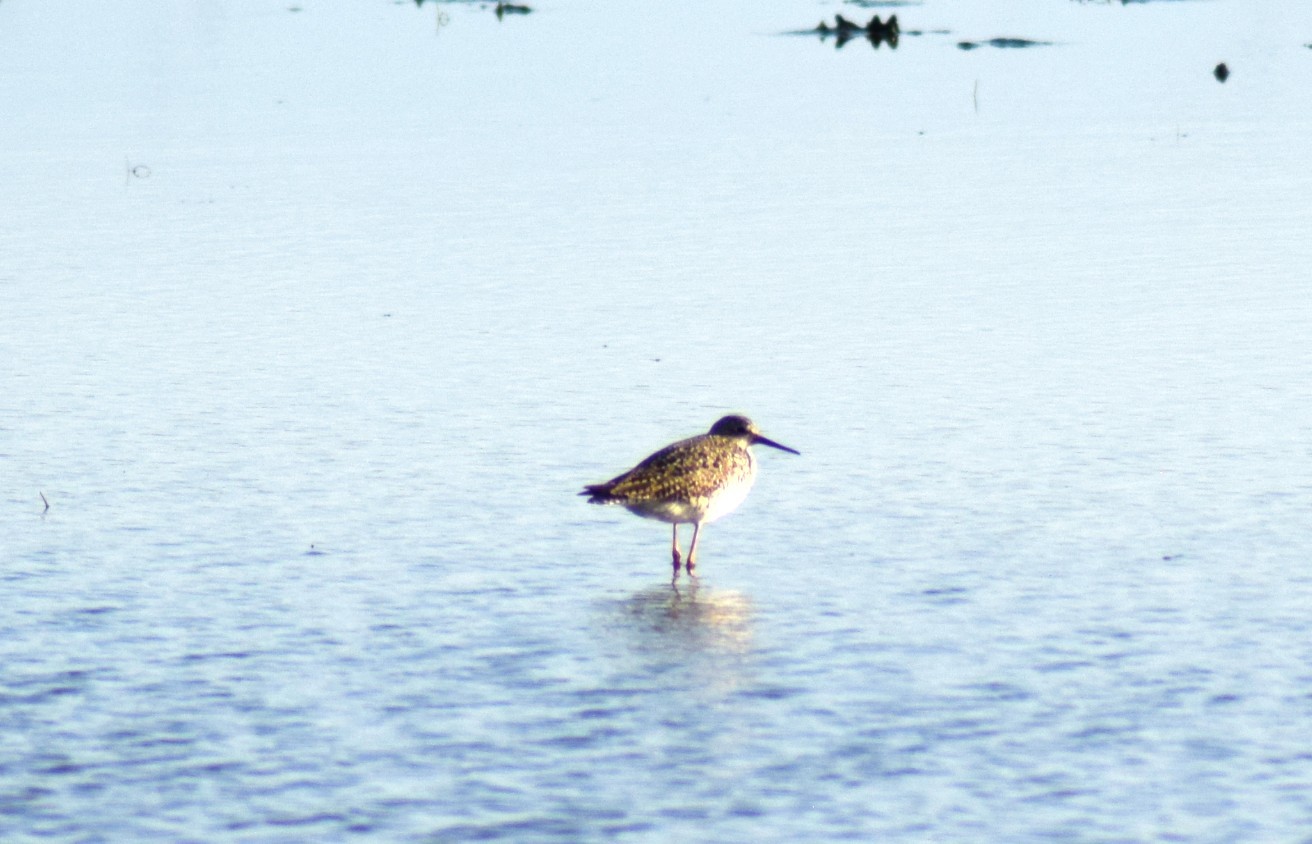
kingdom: Animalia
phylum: Chordata
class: Aves
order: Charadriiformes
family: Scolopacidae
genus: Tringa
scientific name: Tringa
